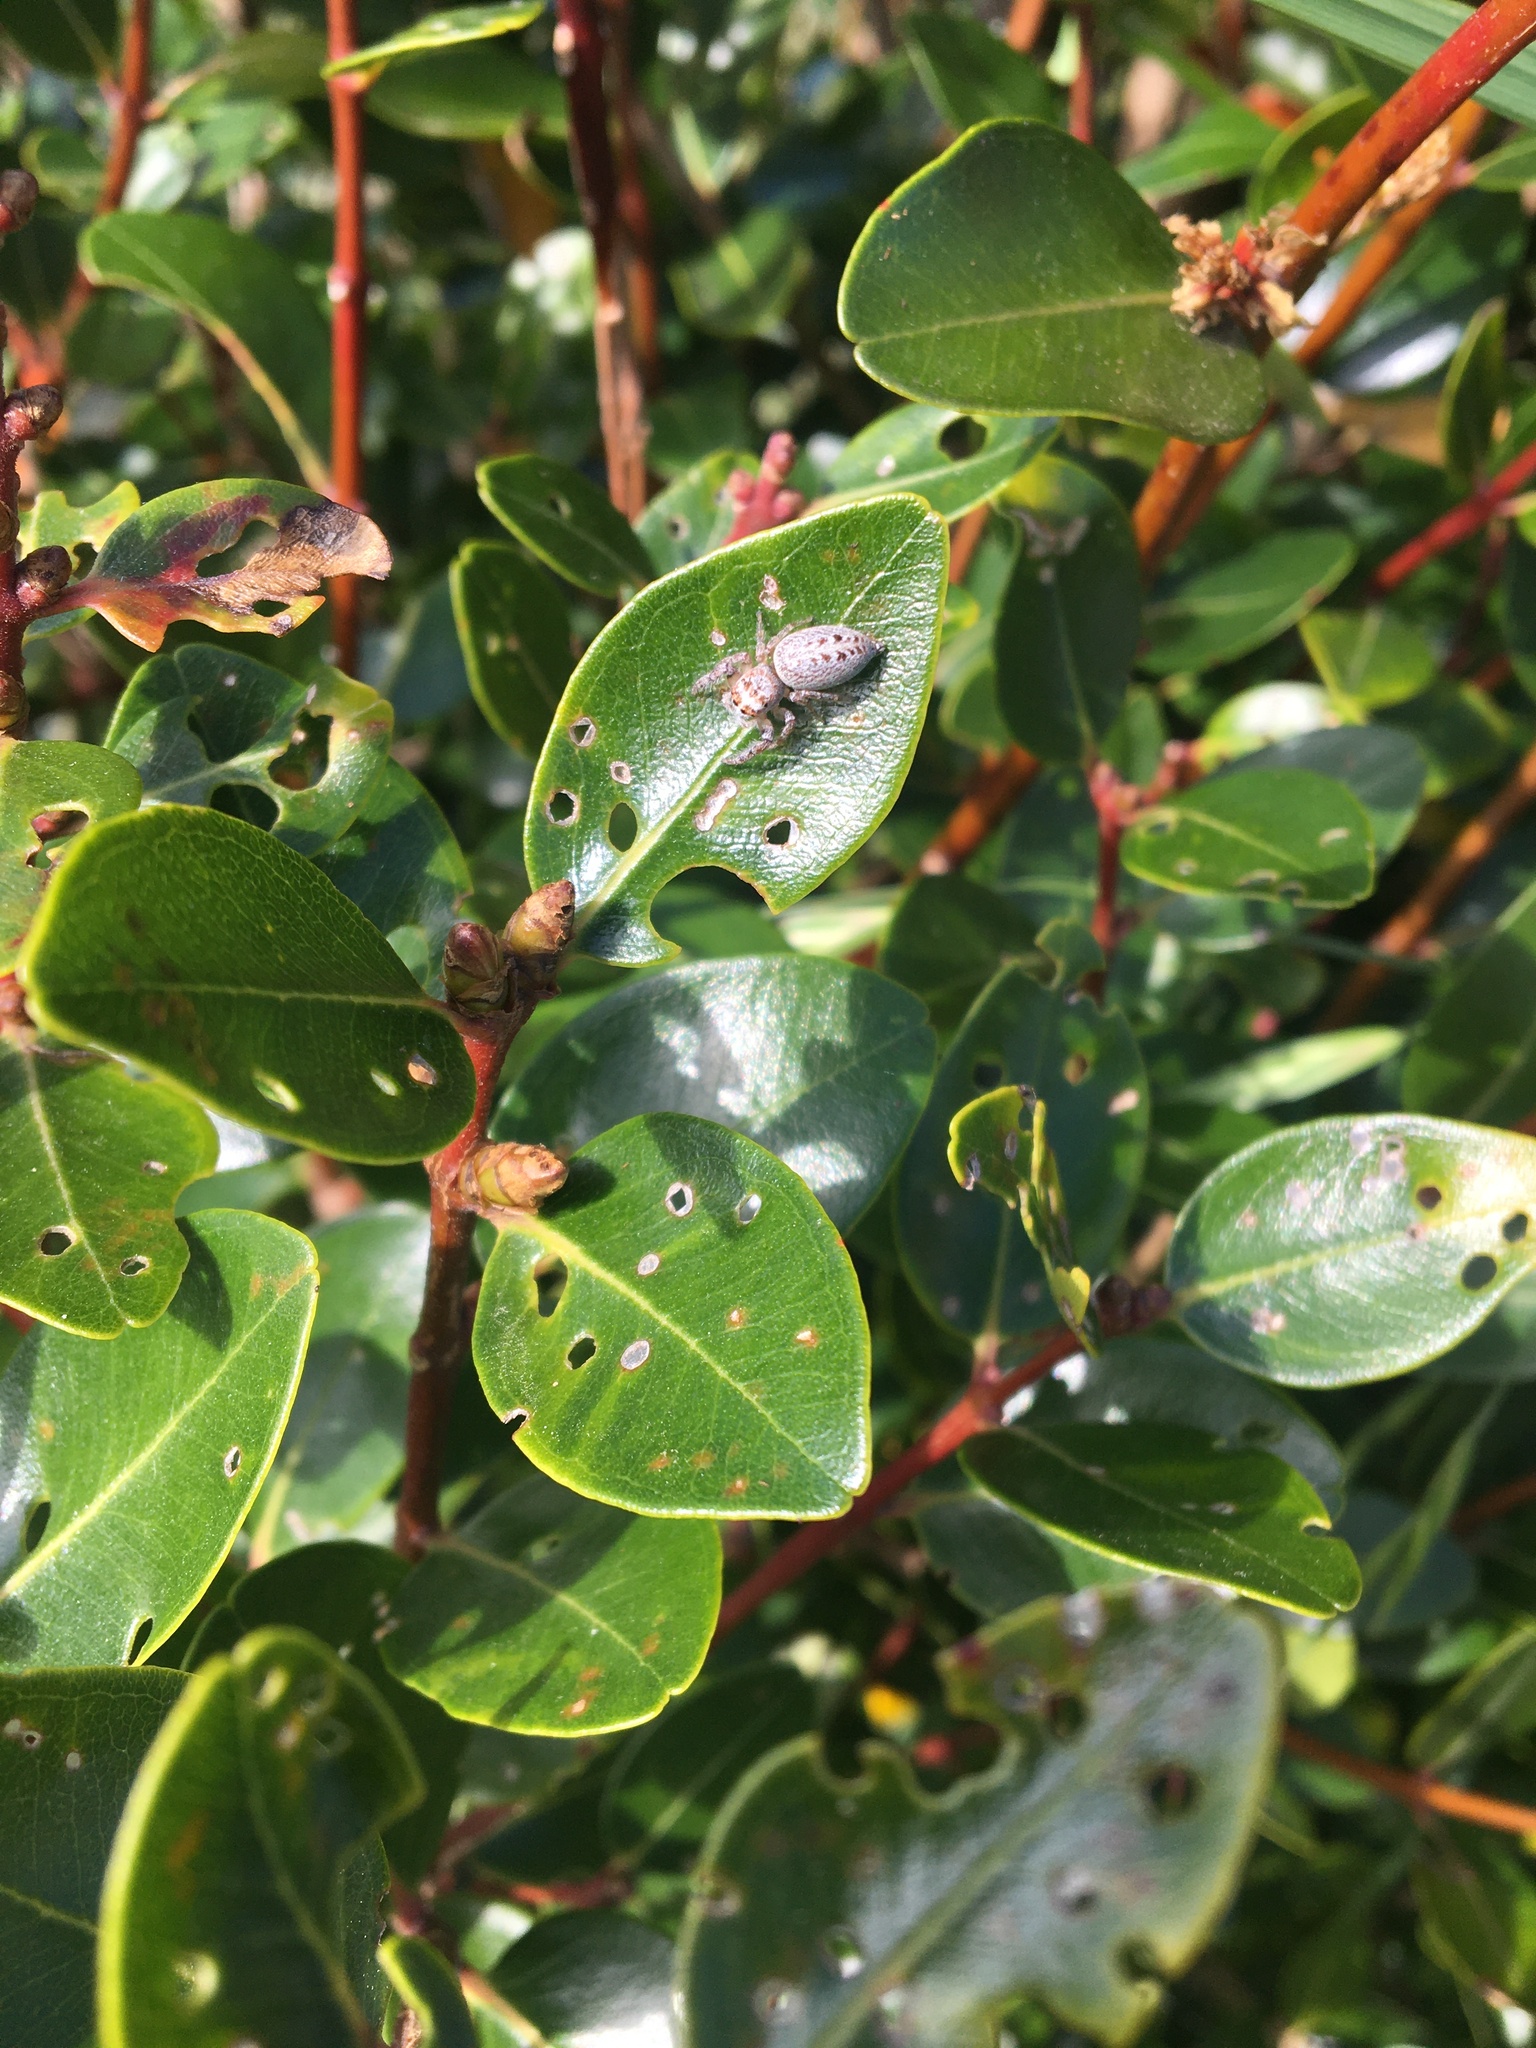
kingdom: Animalia
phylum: Arthropoda
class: Arachnida
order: Araneae
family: Salticidae
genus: Opisthoncus
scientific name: Opisthoncus polyphemus
